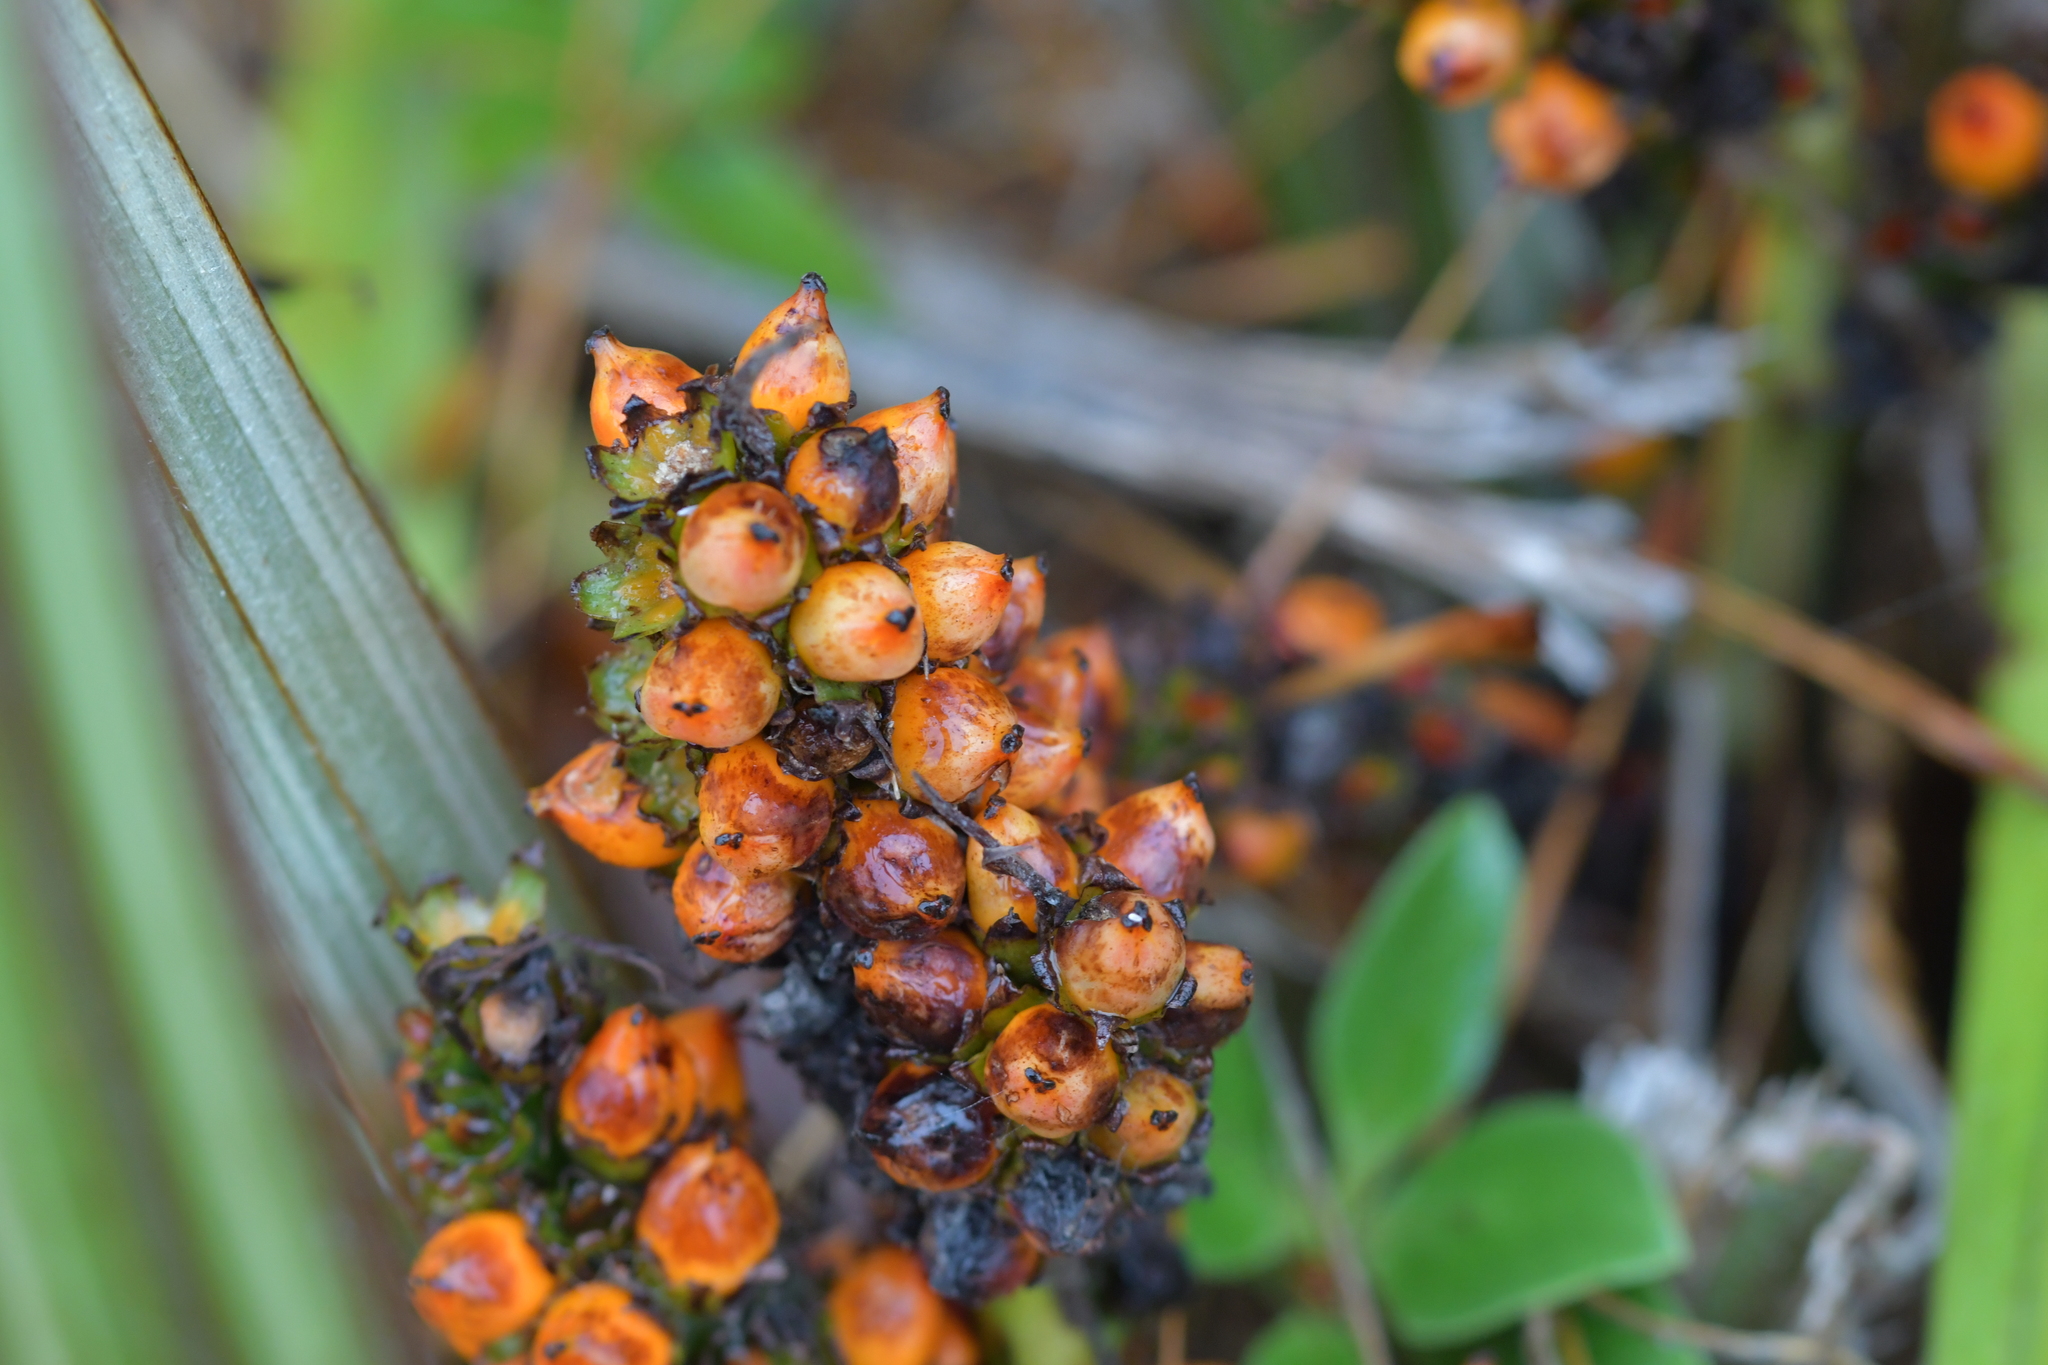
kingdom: Plantae
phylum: Tracheophyta
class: Liliopsida
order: Asparagales
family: Asteliaceae
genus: Astelia
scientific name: Astelia nervosa
